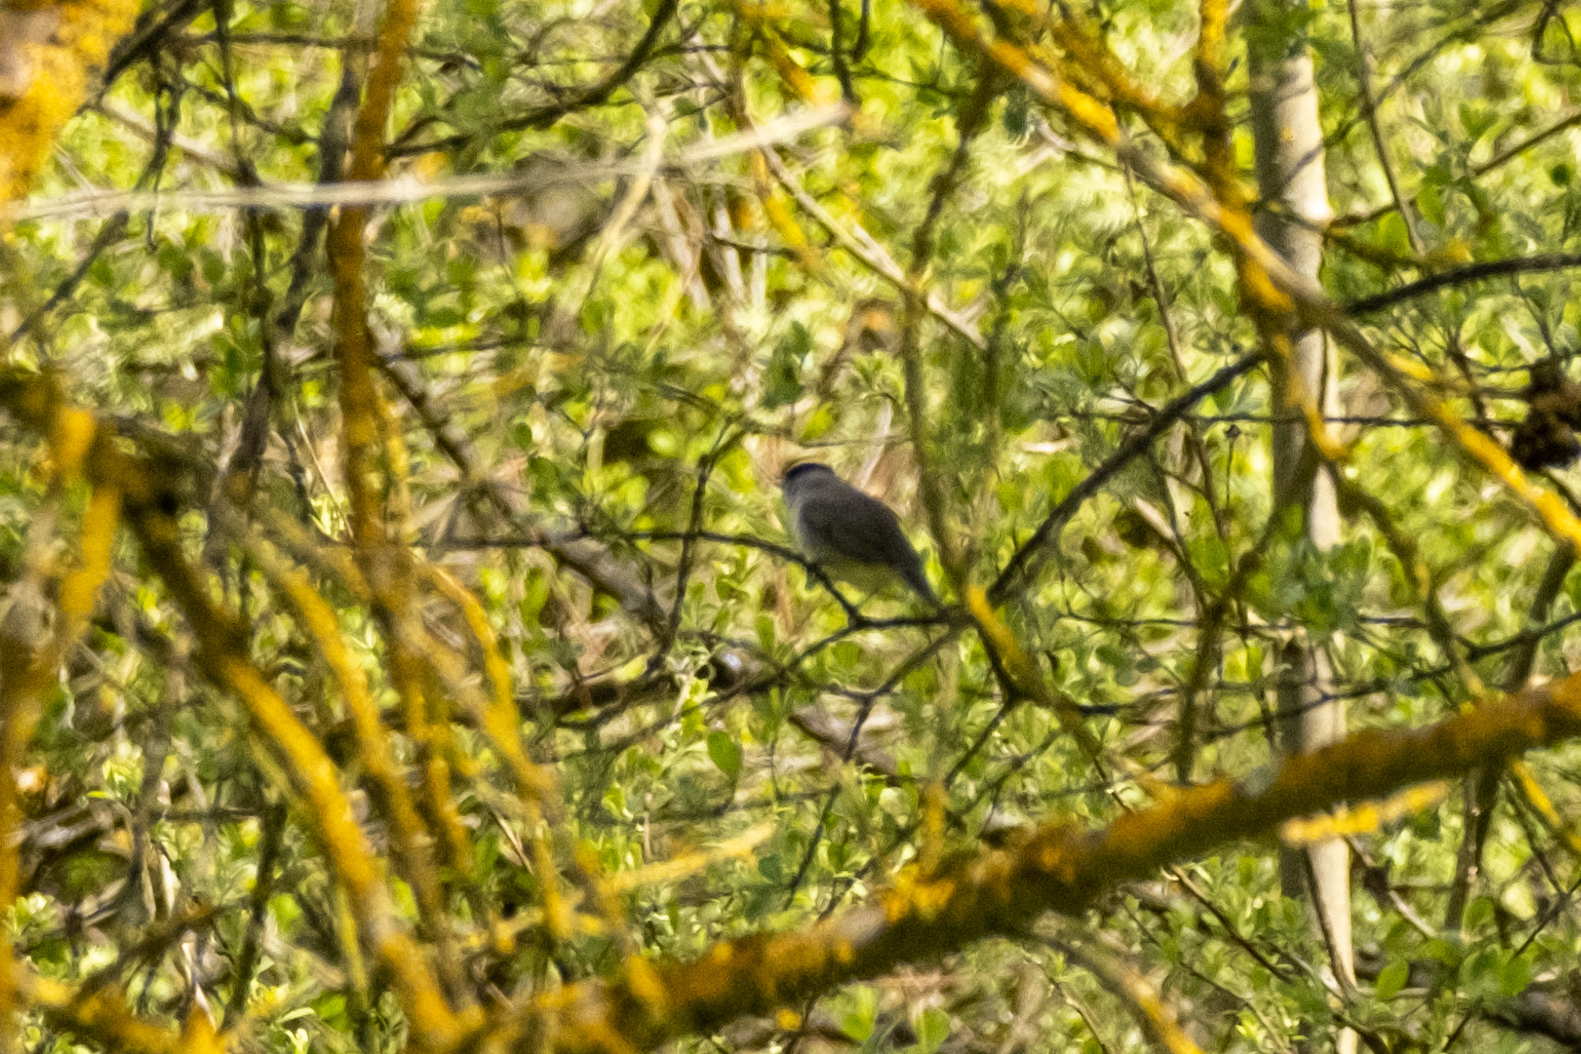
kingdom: Animalia
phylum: Chordata
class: Aves
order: Passeriformes
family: Sylviidae
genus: Sylvia
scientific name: Sylvia atricapilla
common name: Eurasian blackcap
